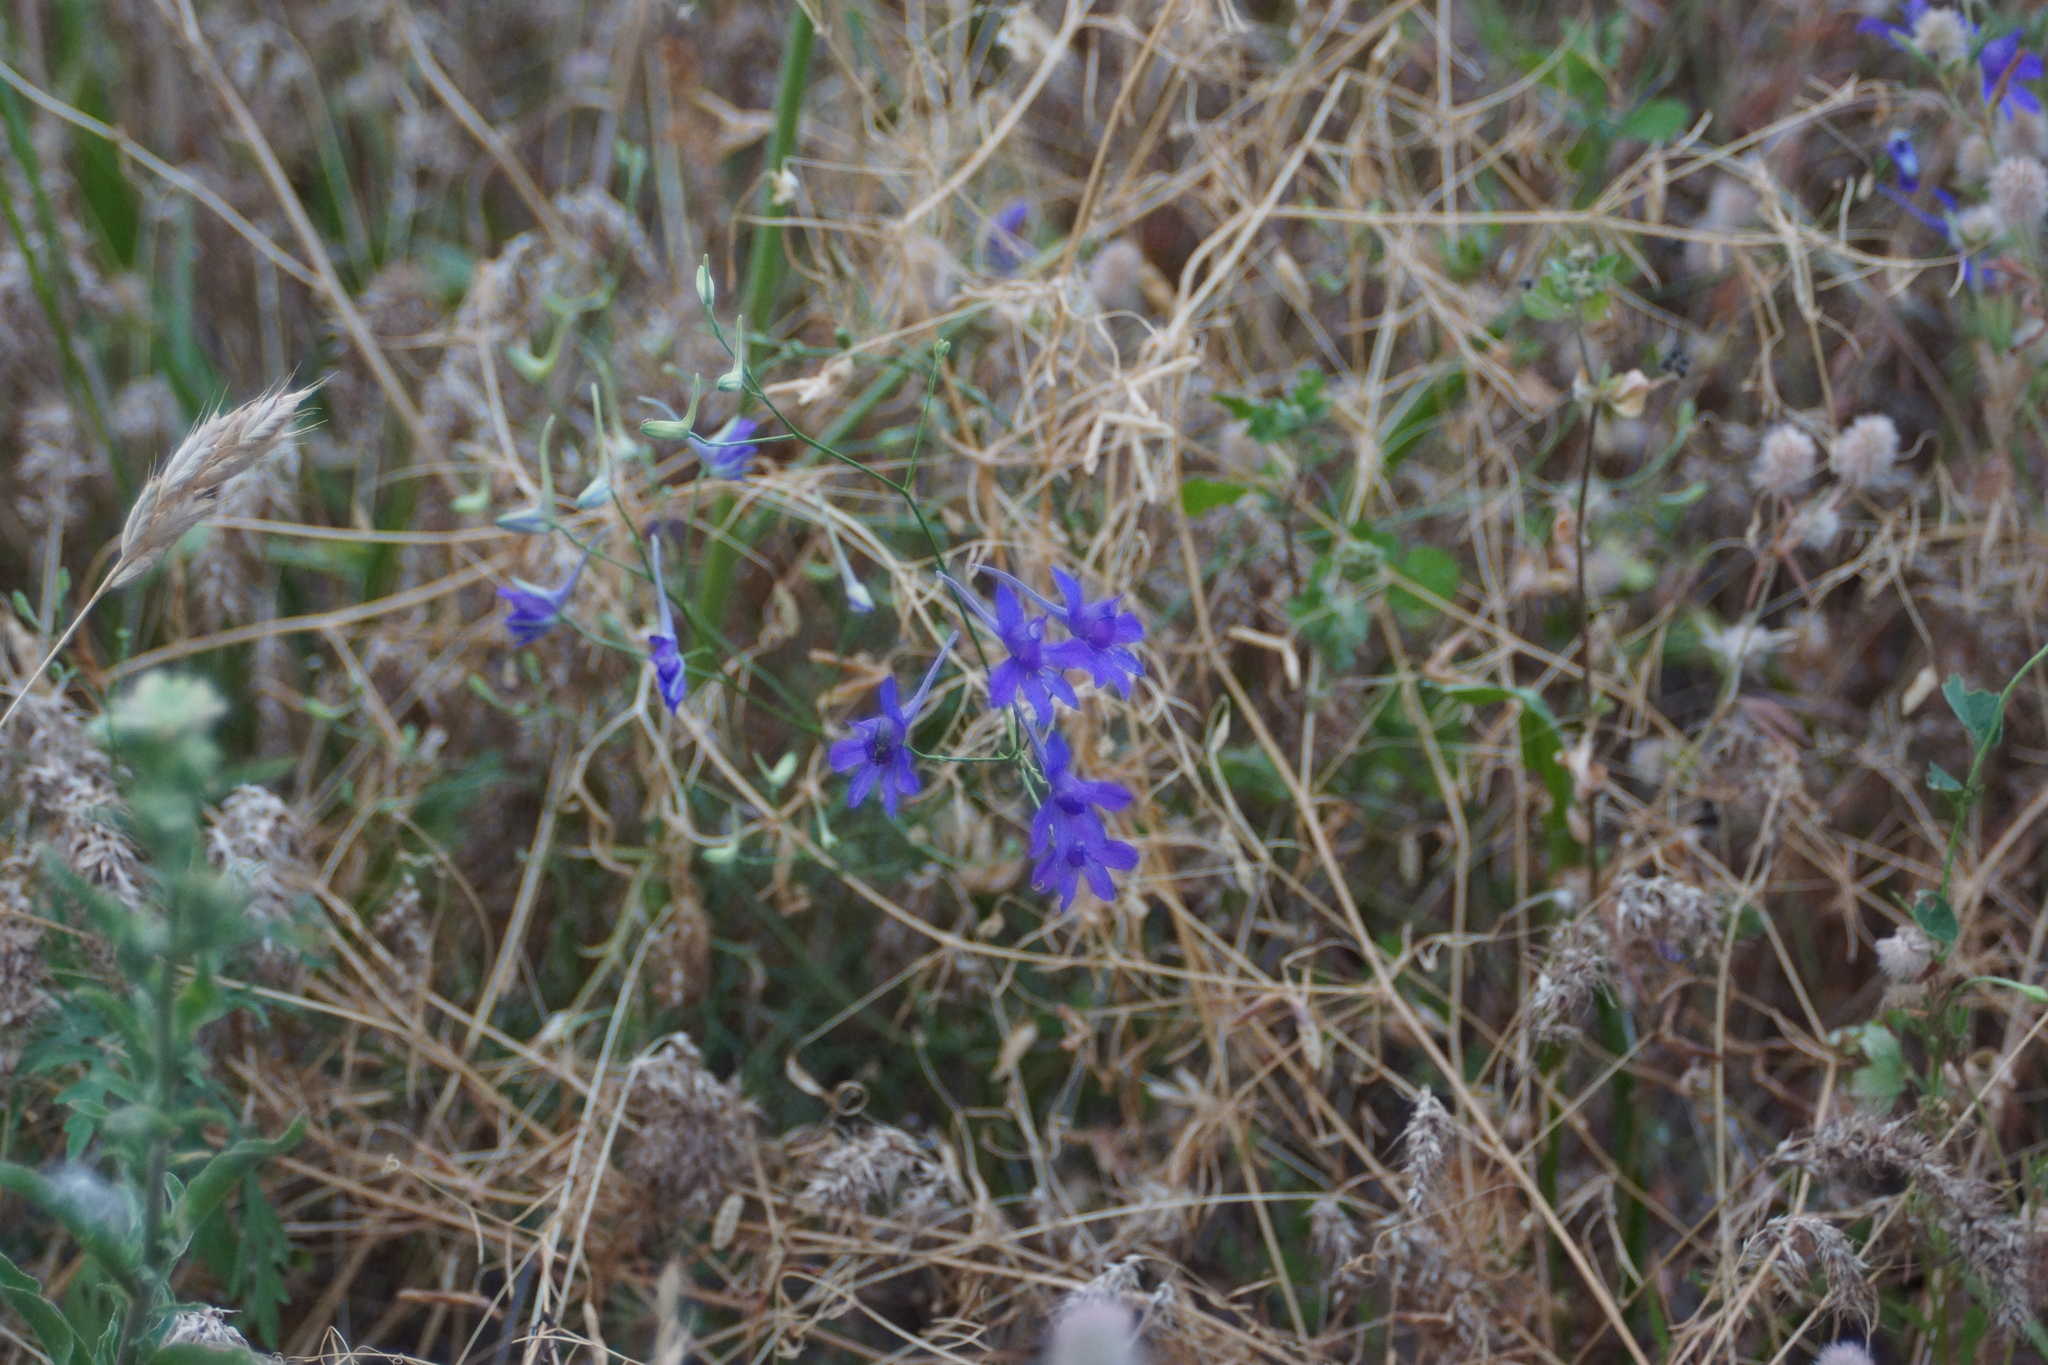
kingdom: Plantae
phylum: Tracheophyta
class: Magnoliopsida
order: Ranunculales
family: Ranunculaceae
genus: Delphinium
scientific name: Delphinium consolida
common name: Branching larkspur
